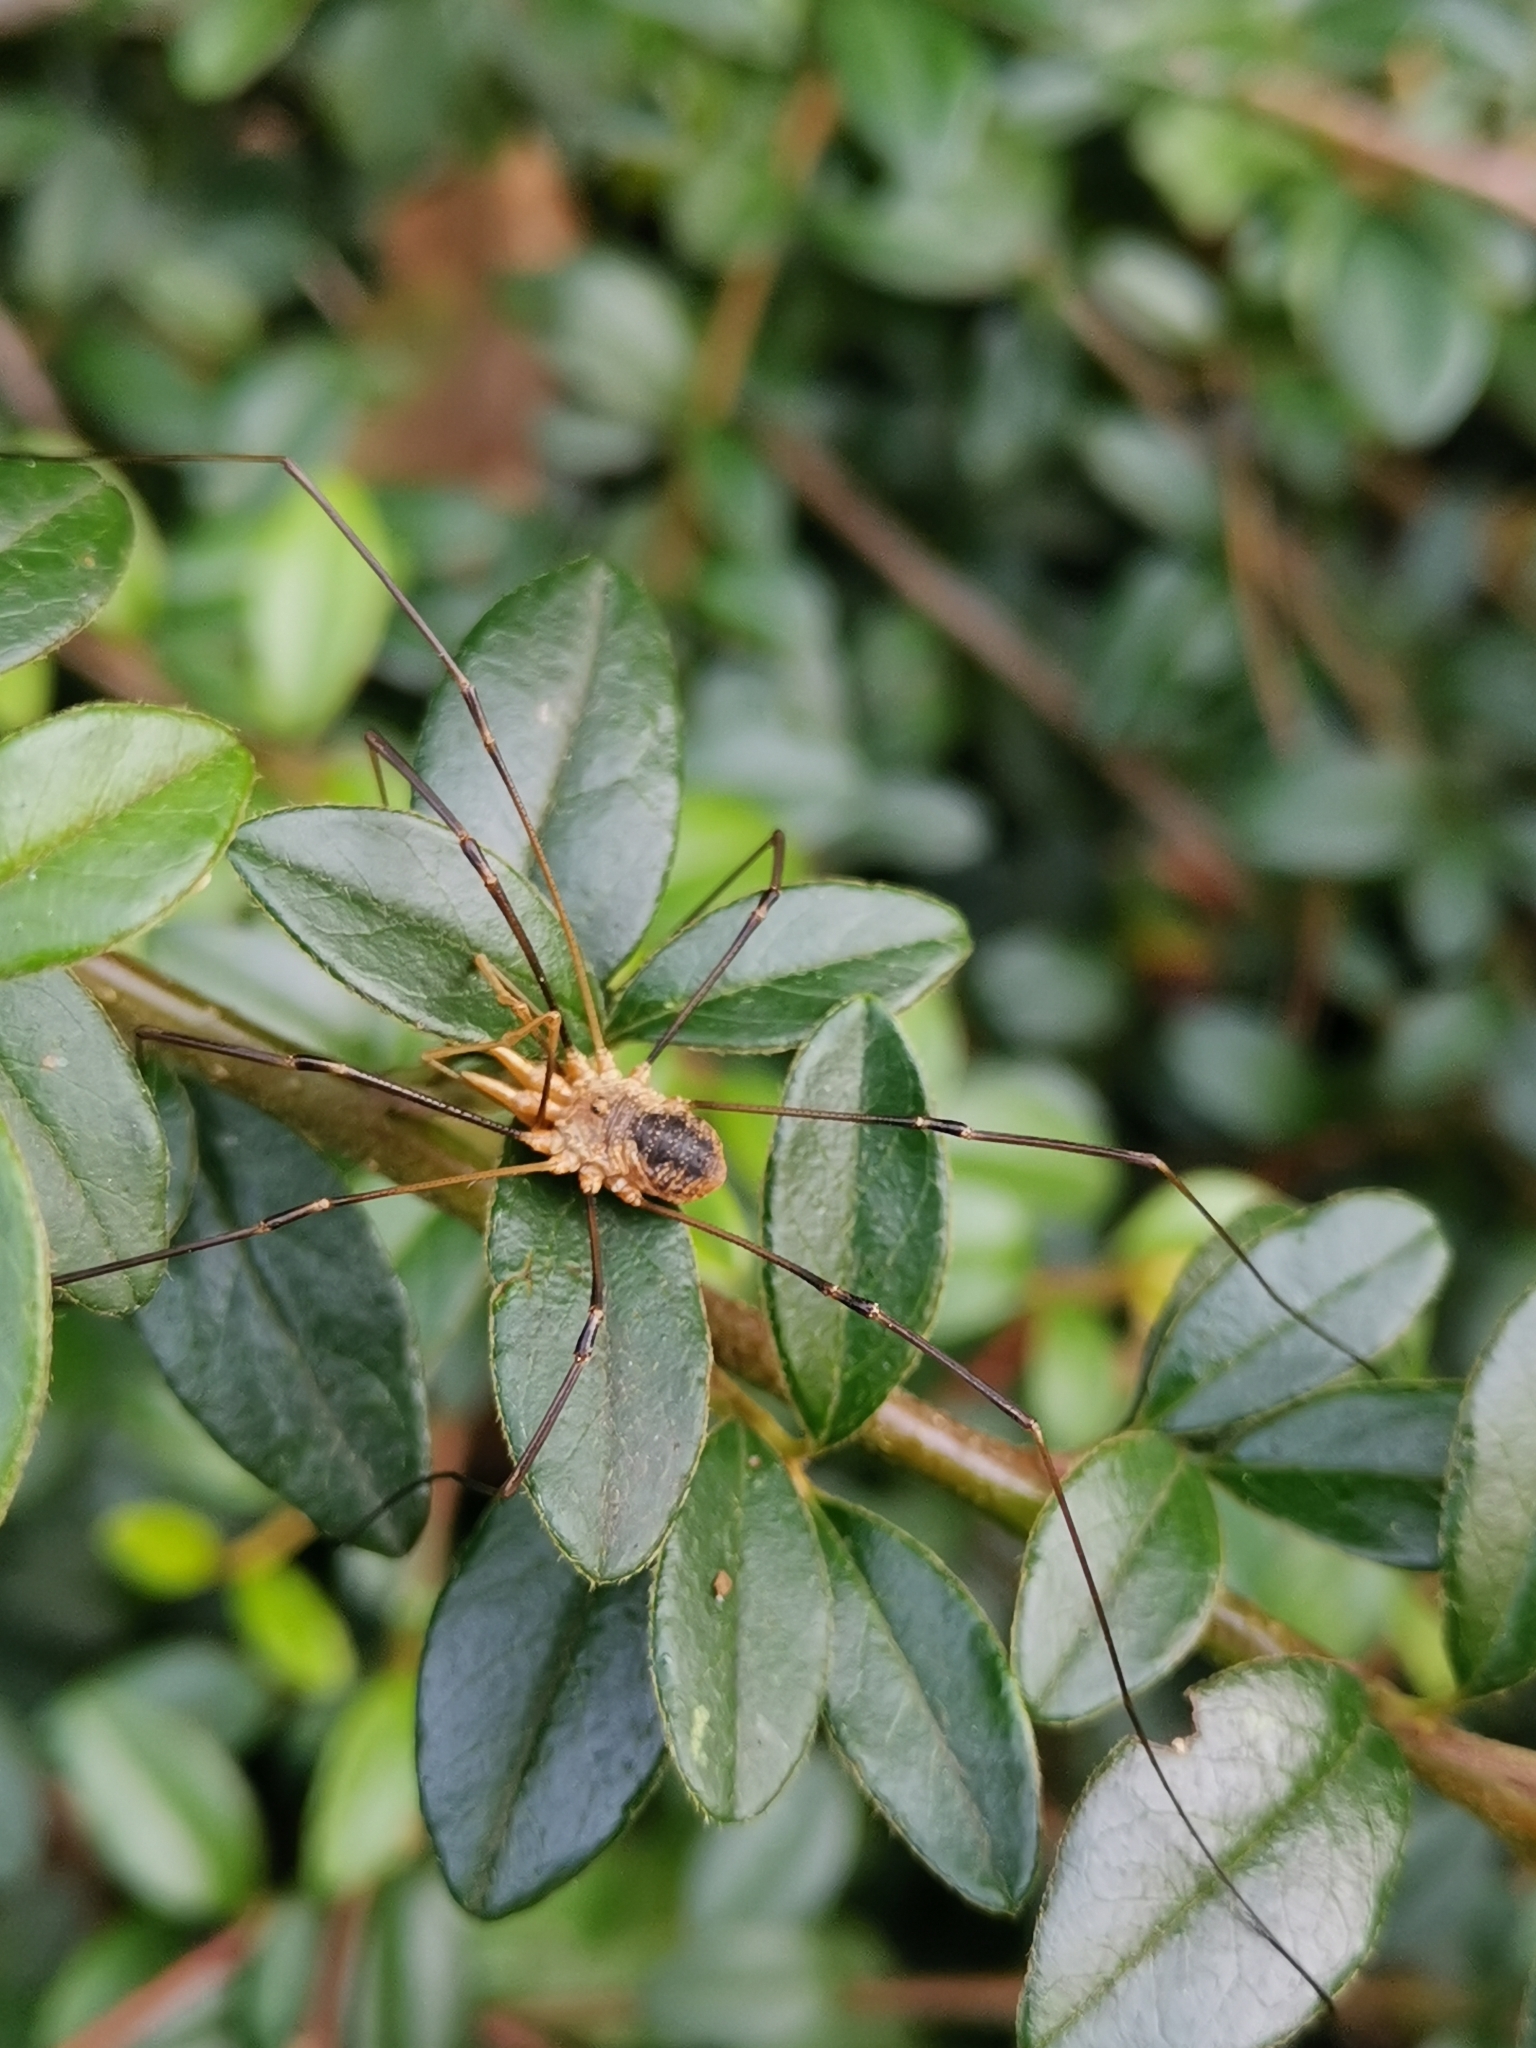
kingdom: Animalia
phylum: Arthropoda
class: Arachnida
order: Opiliones
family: Phalangiidae
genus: Phalangium
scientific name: Phalangium opilio
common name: Daddy longleg
